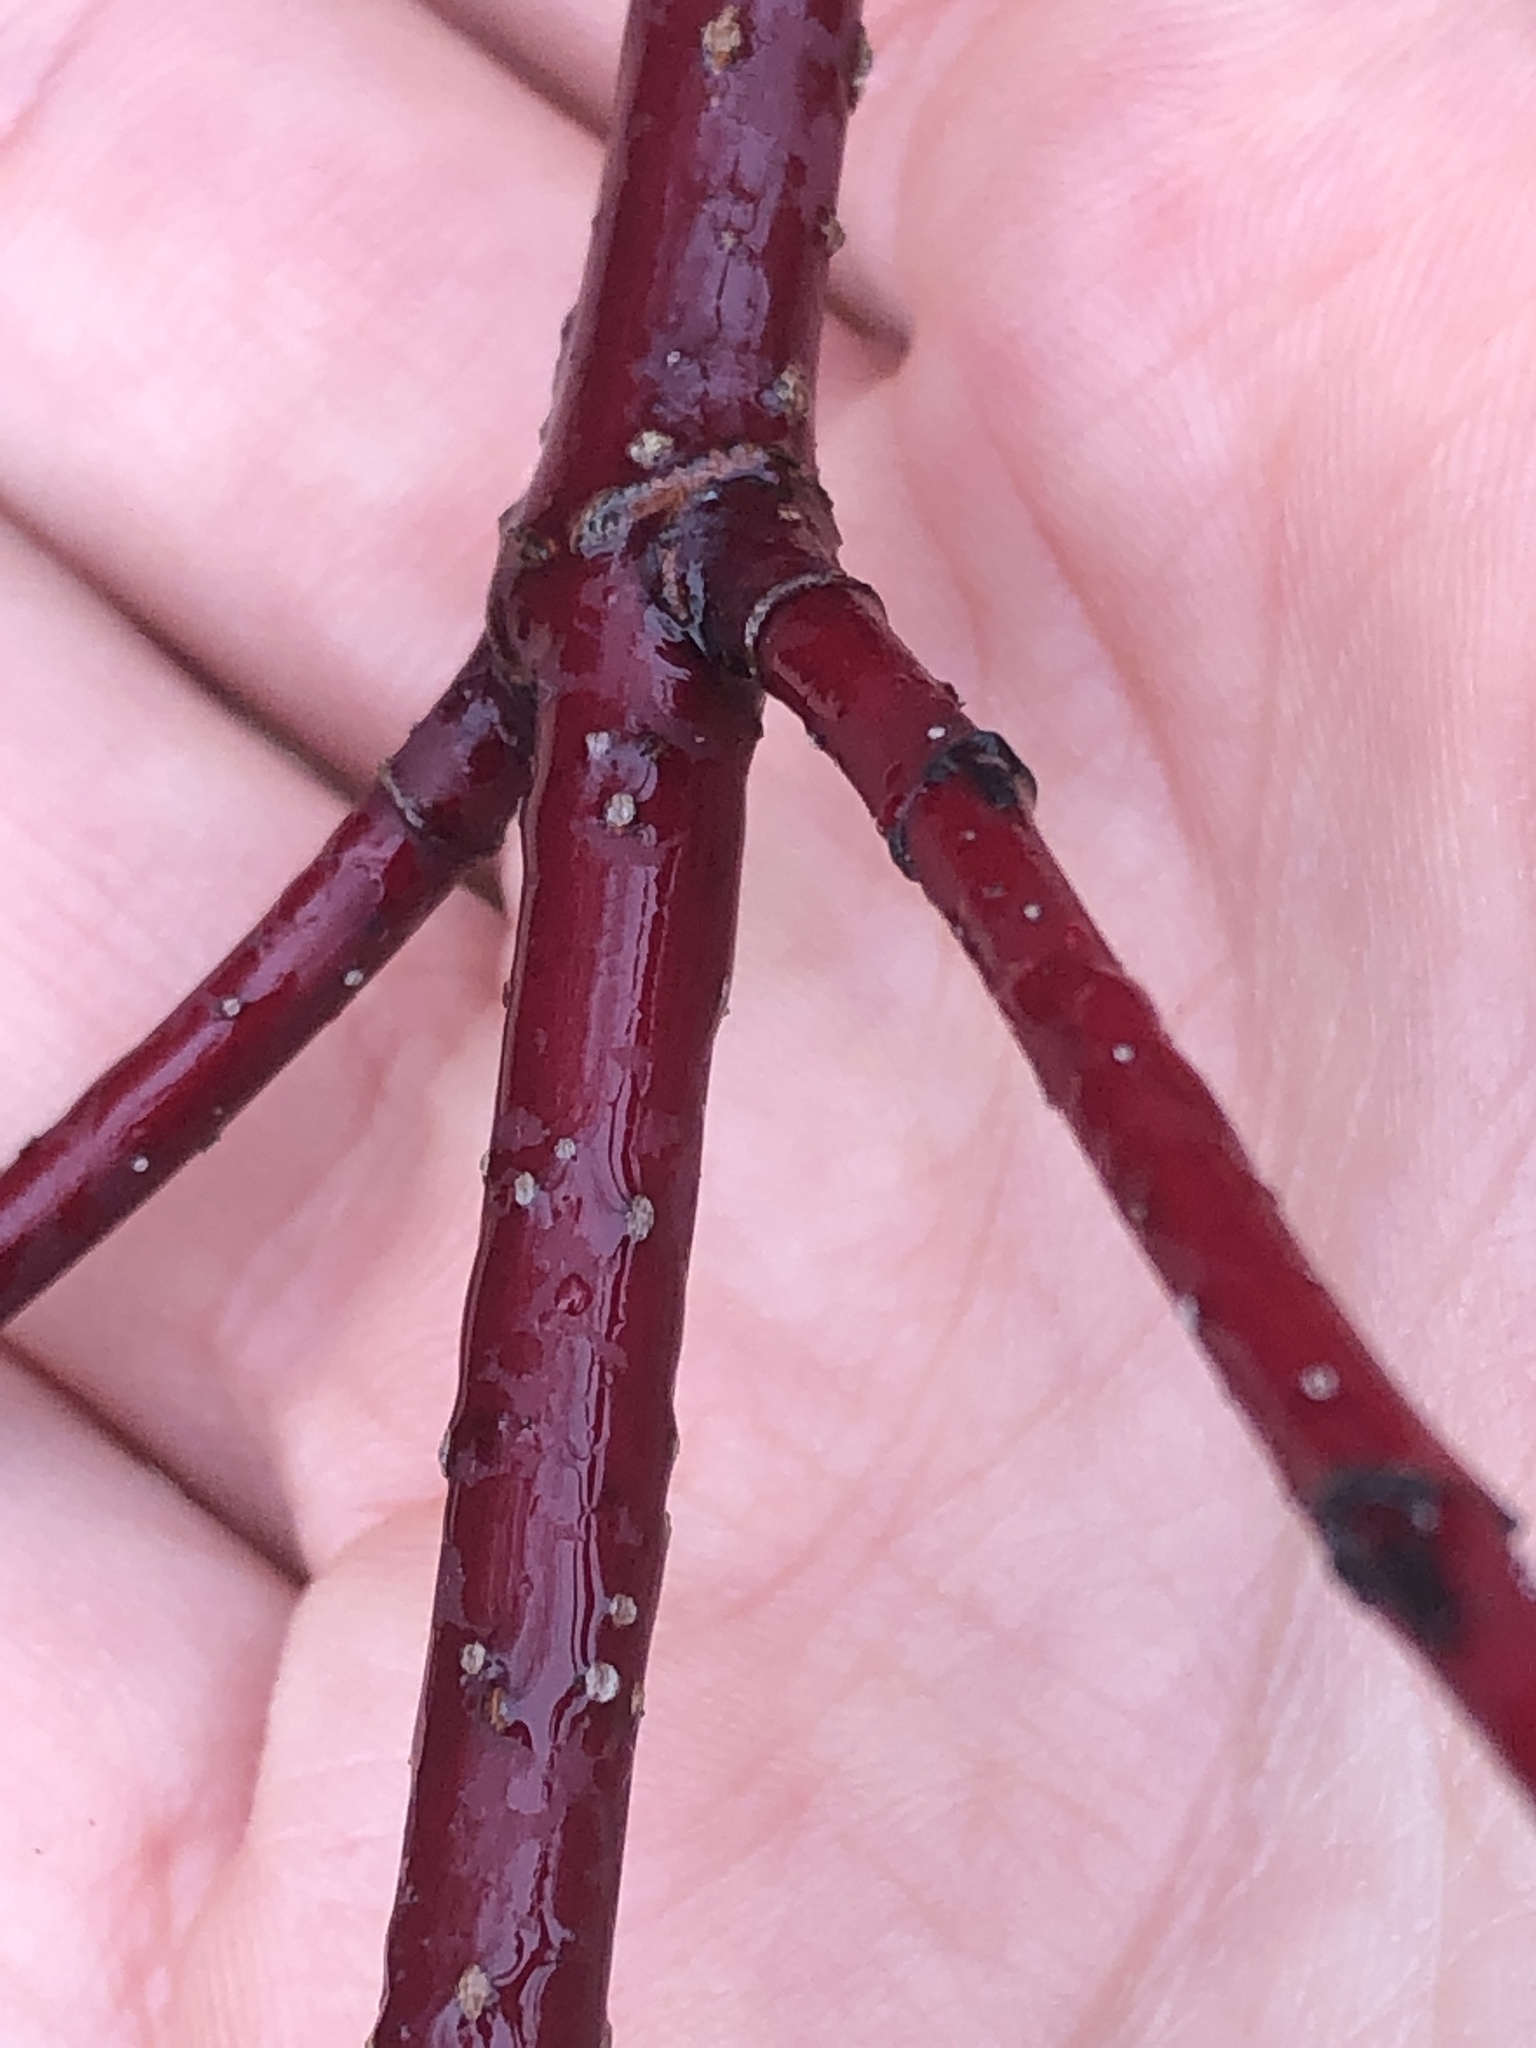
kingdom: Plantae
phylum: Tracheophyta
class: Magnoliopsida
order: Cornales
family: Cornaceae
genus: Cornus
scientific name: Cornus sericea
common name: Red-osier dogwood
